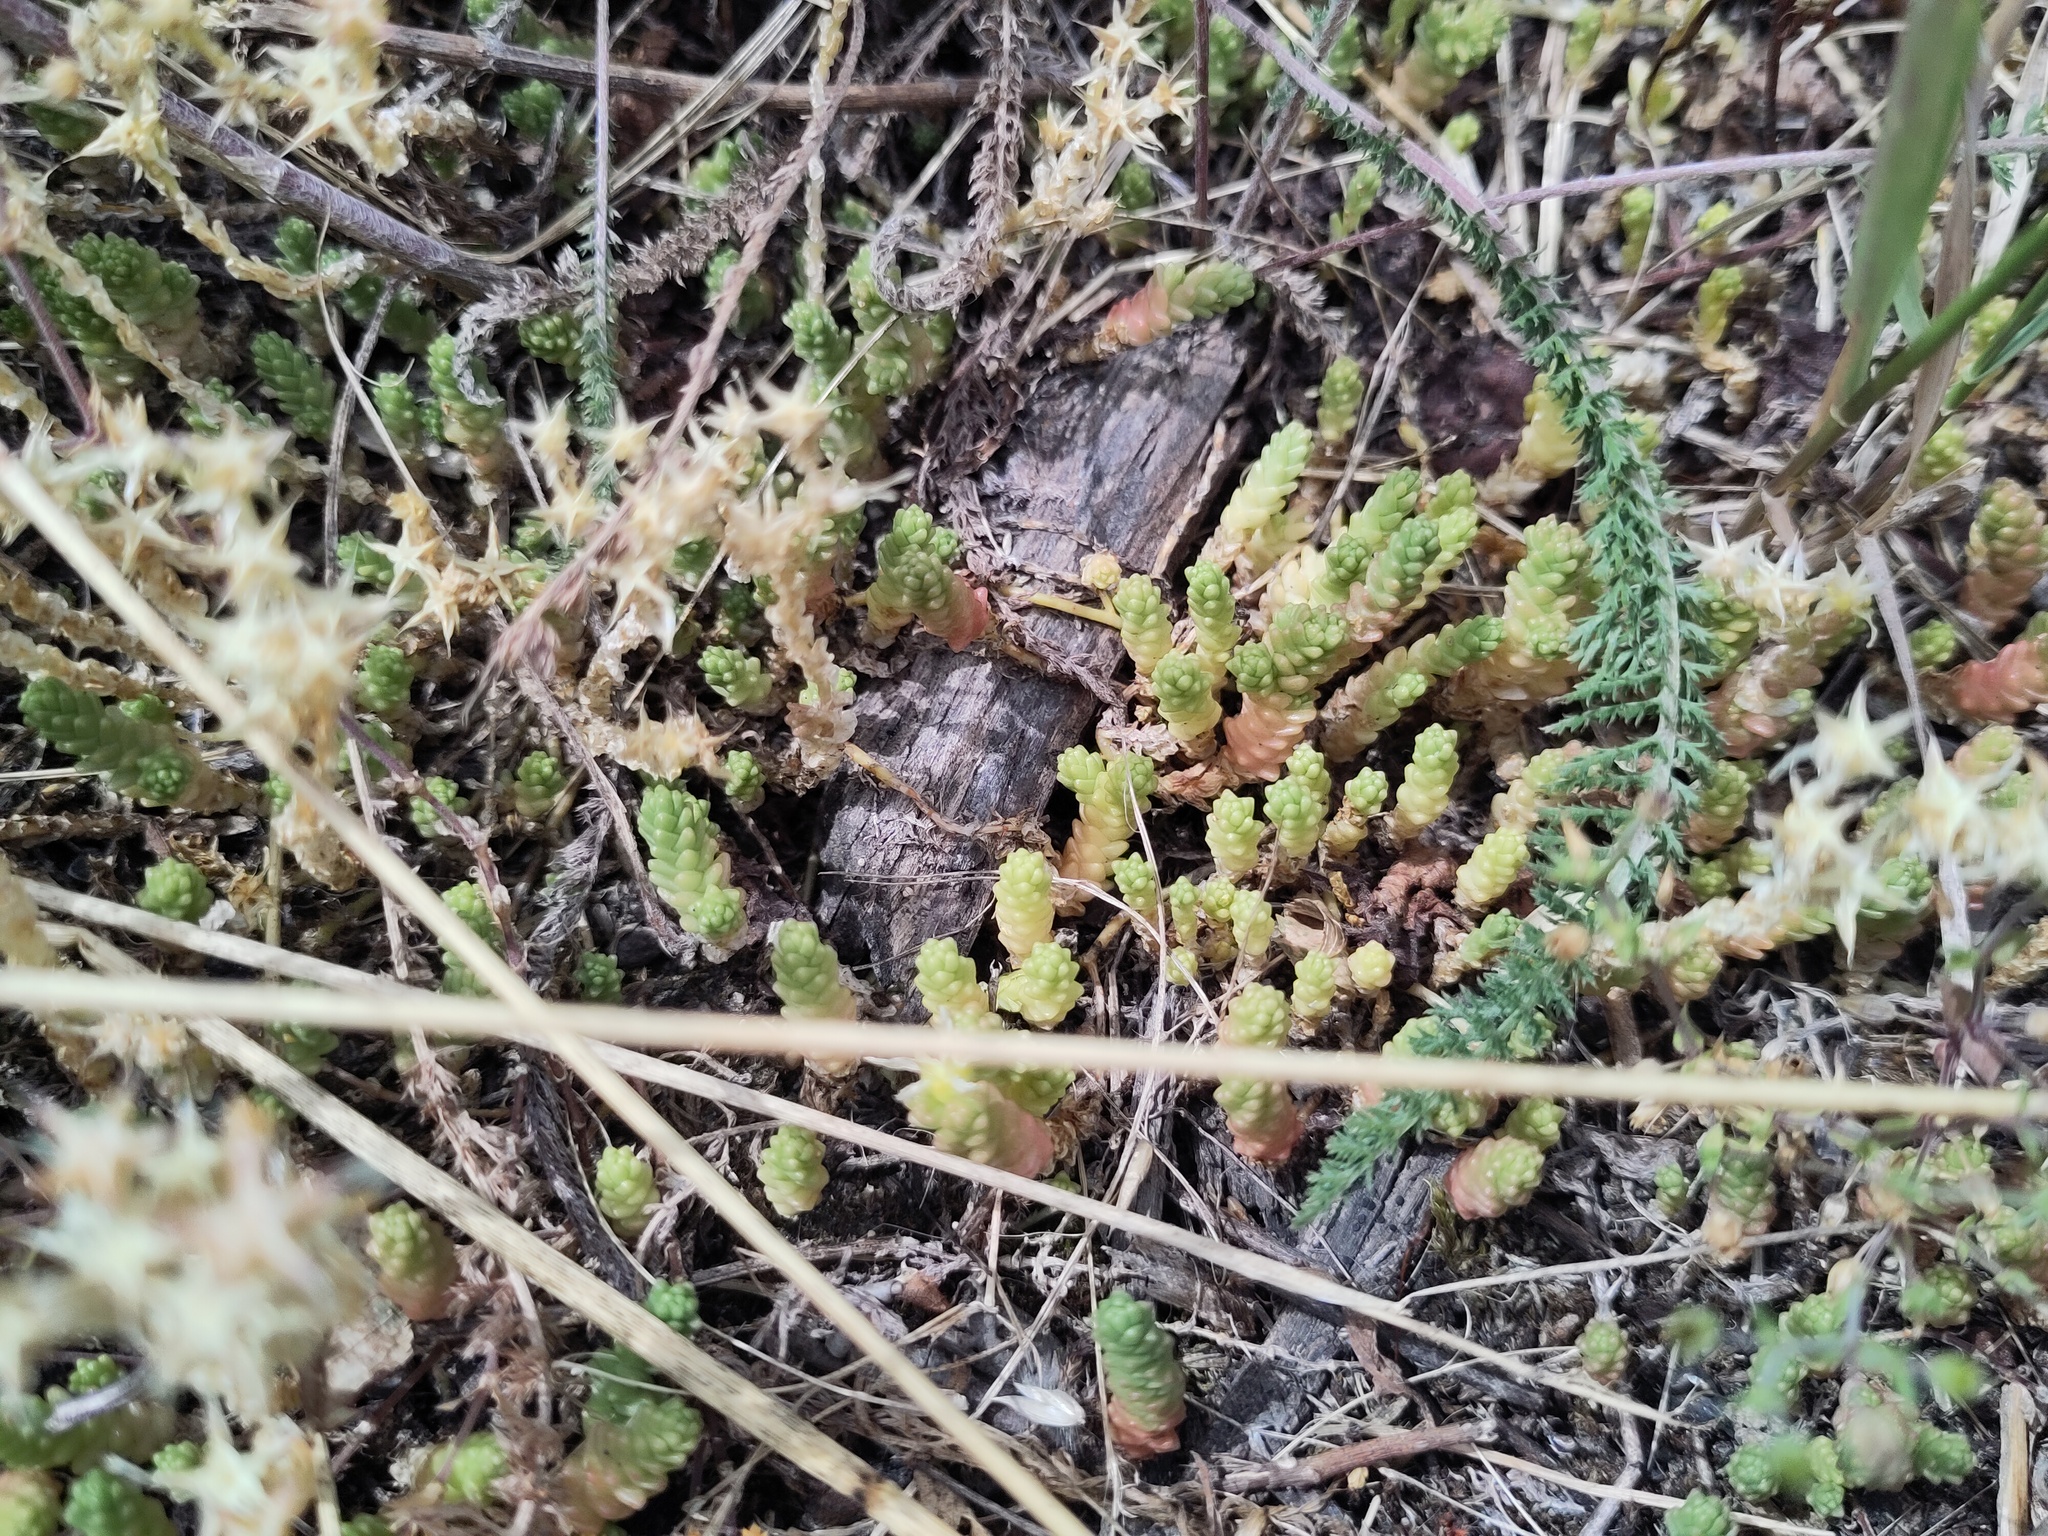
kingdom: Plantae
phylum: Tracheophyta
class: Magnoliopsida
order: Saxifragales
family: Crassulaceae
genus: Sedum
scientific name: Sedum acre
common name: Biting stonecrop
